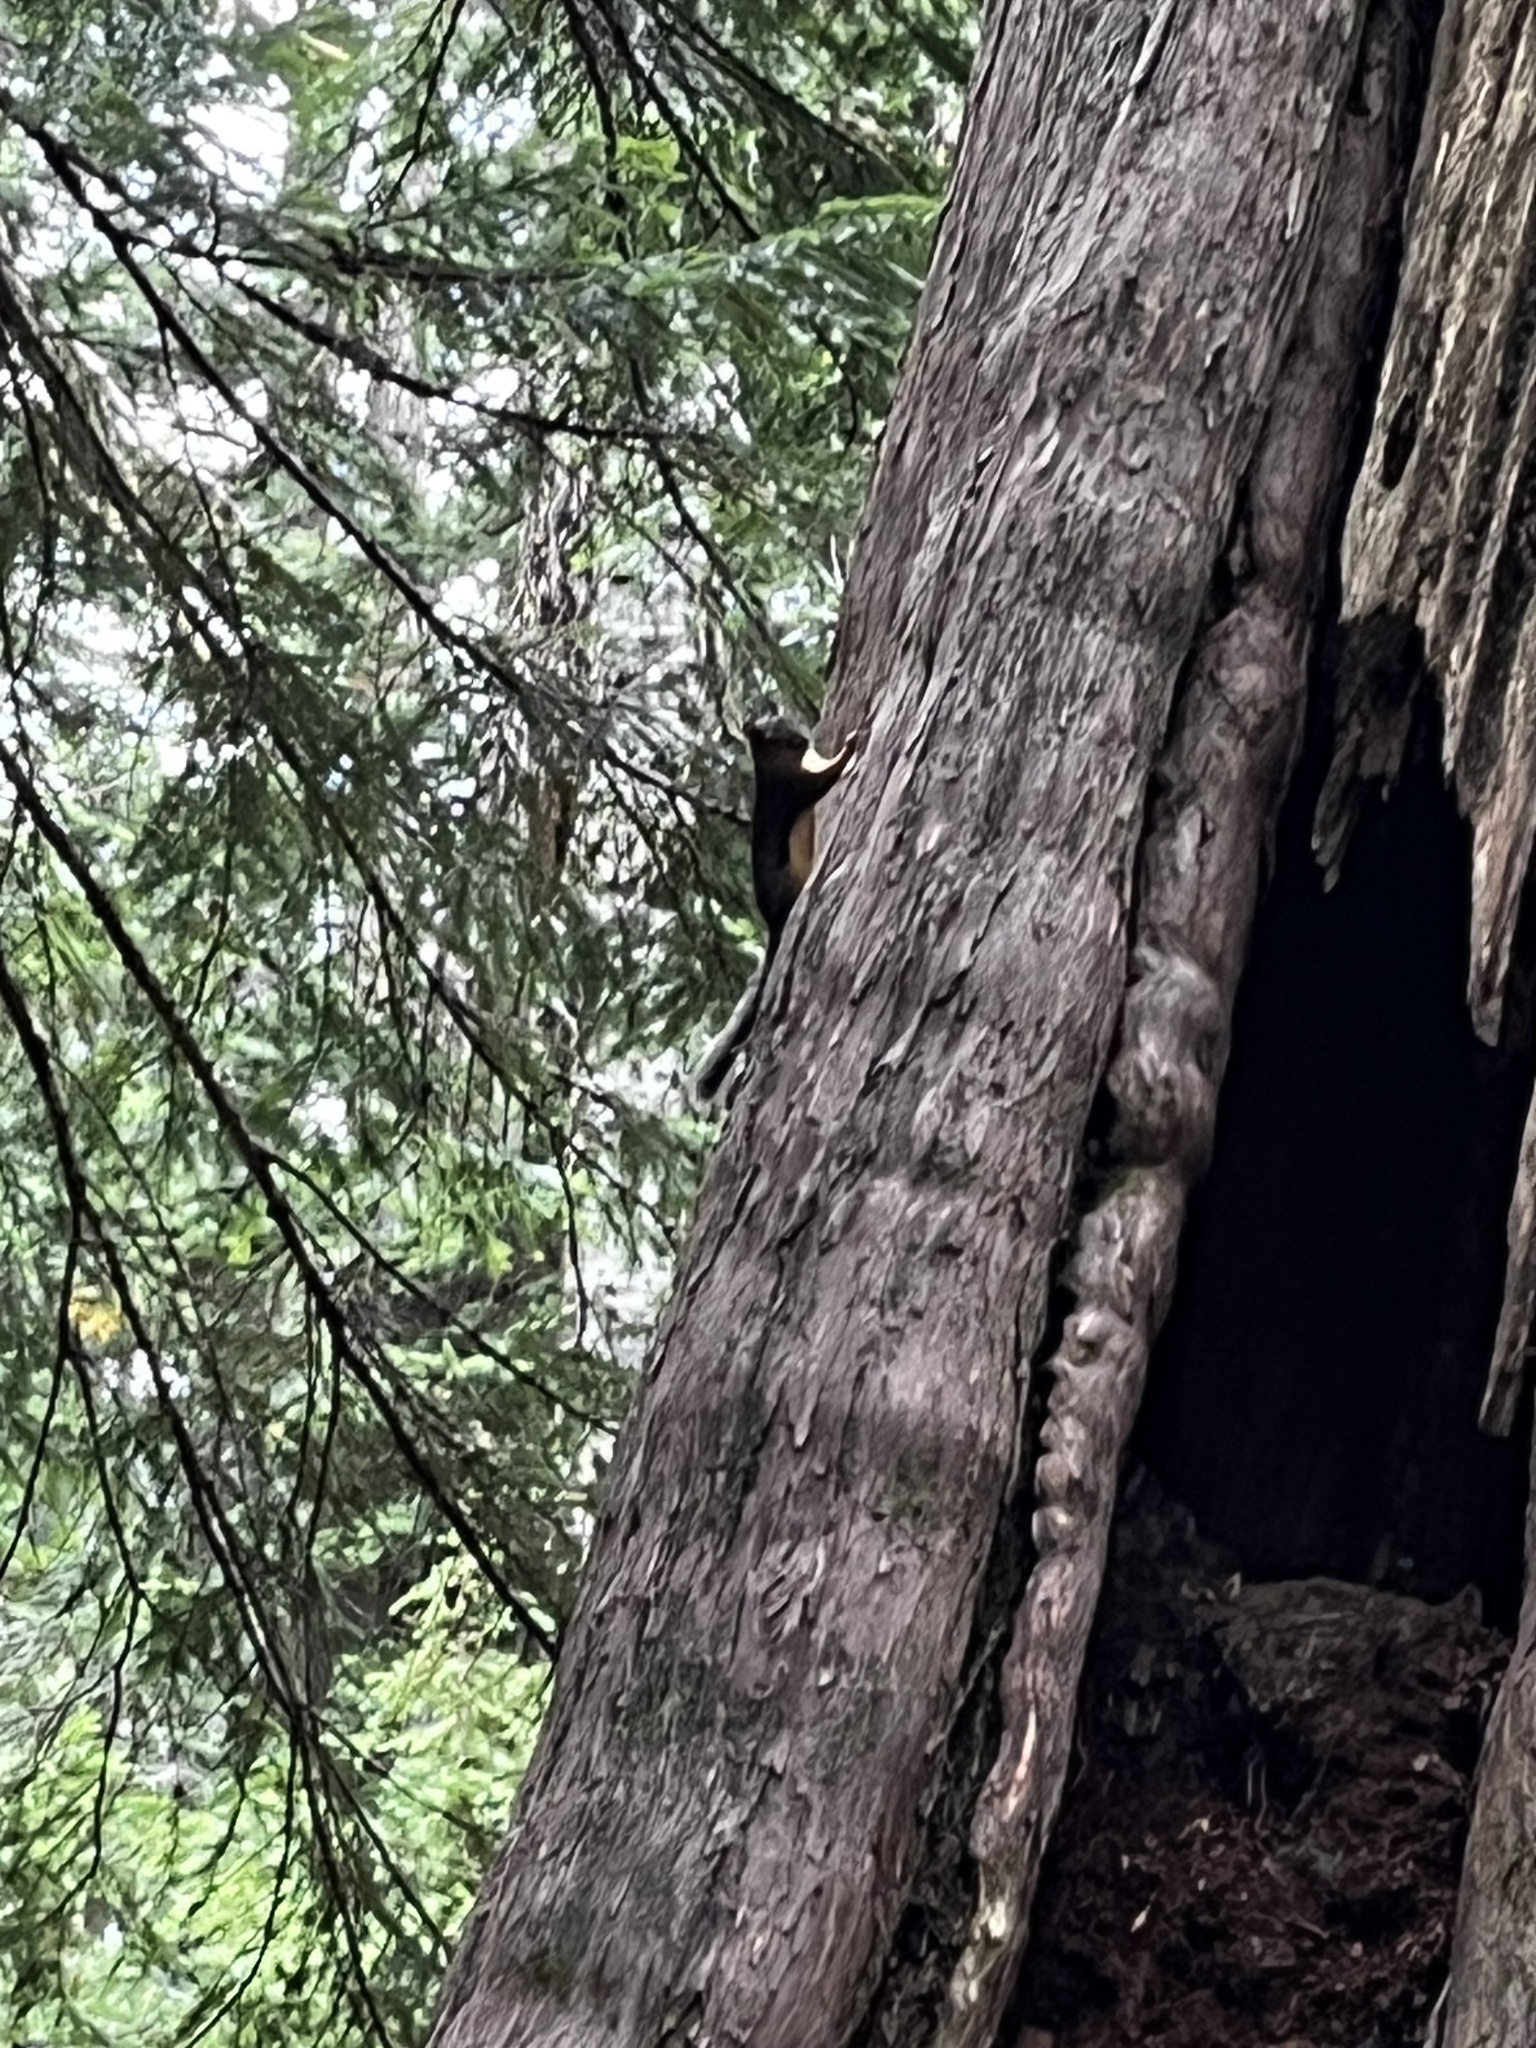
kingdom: Animalia
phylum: Chordata
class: Mammalia
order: Rodentia
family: Sciuridae
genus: Tamiasciurus
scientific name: Tamiasciurus douglasii
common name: Douglas's squirrel
